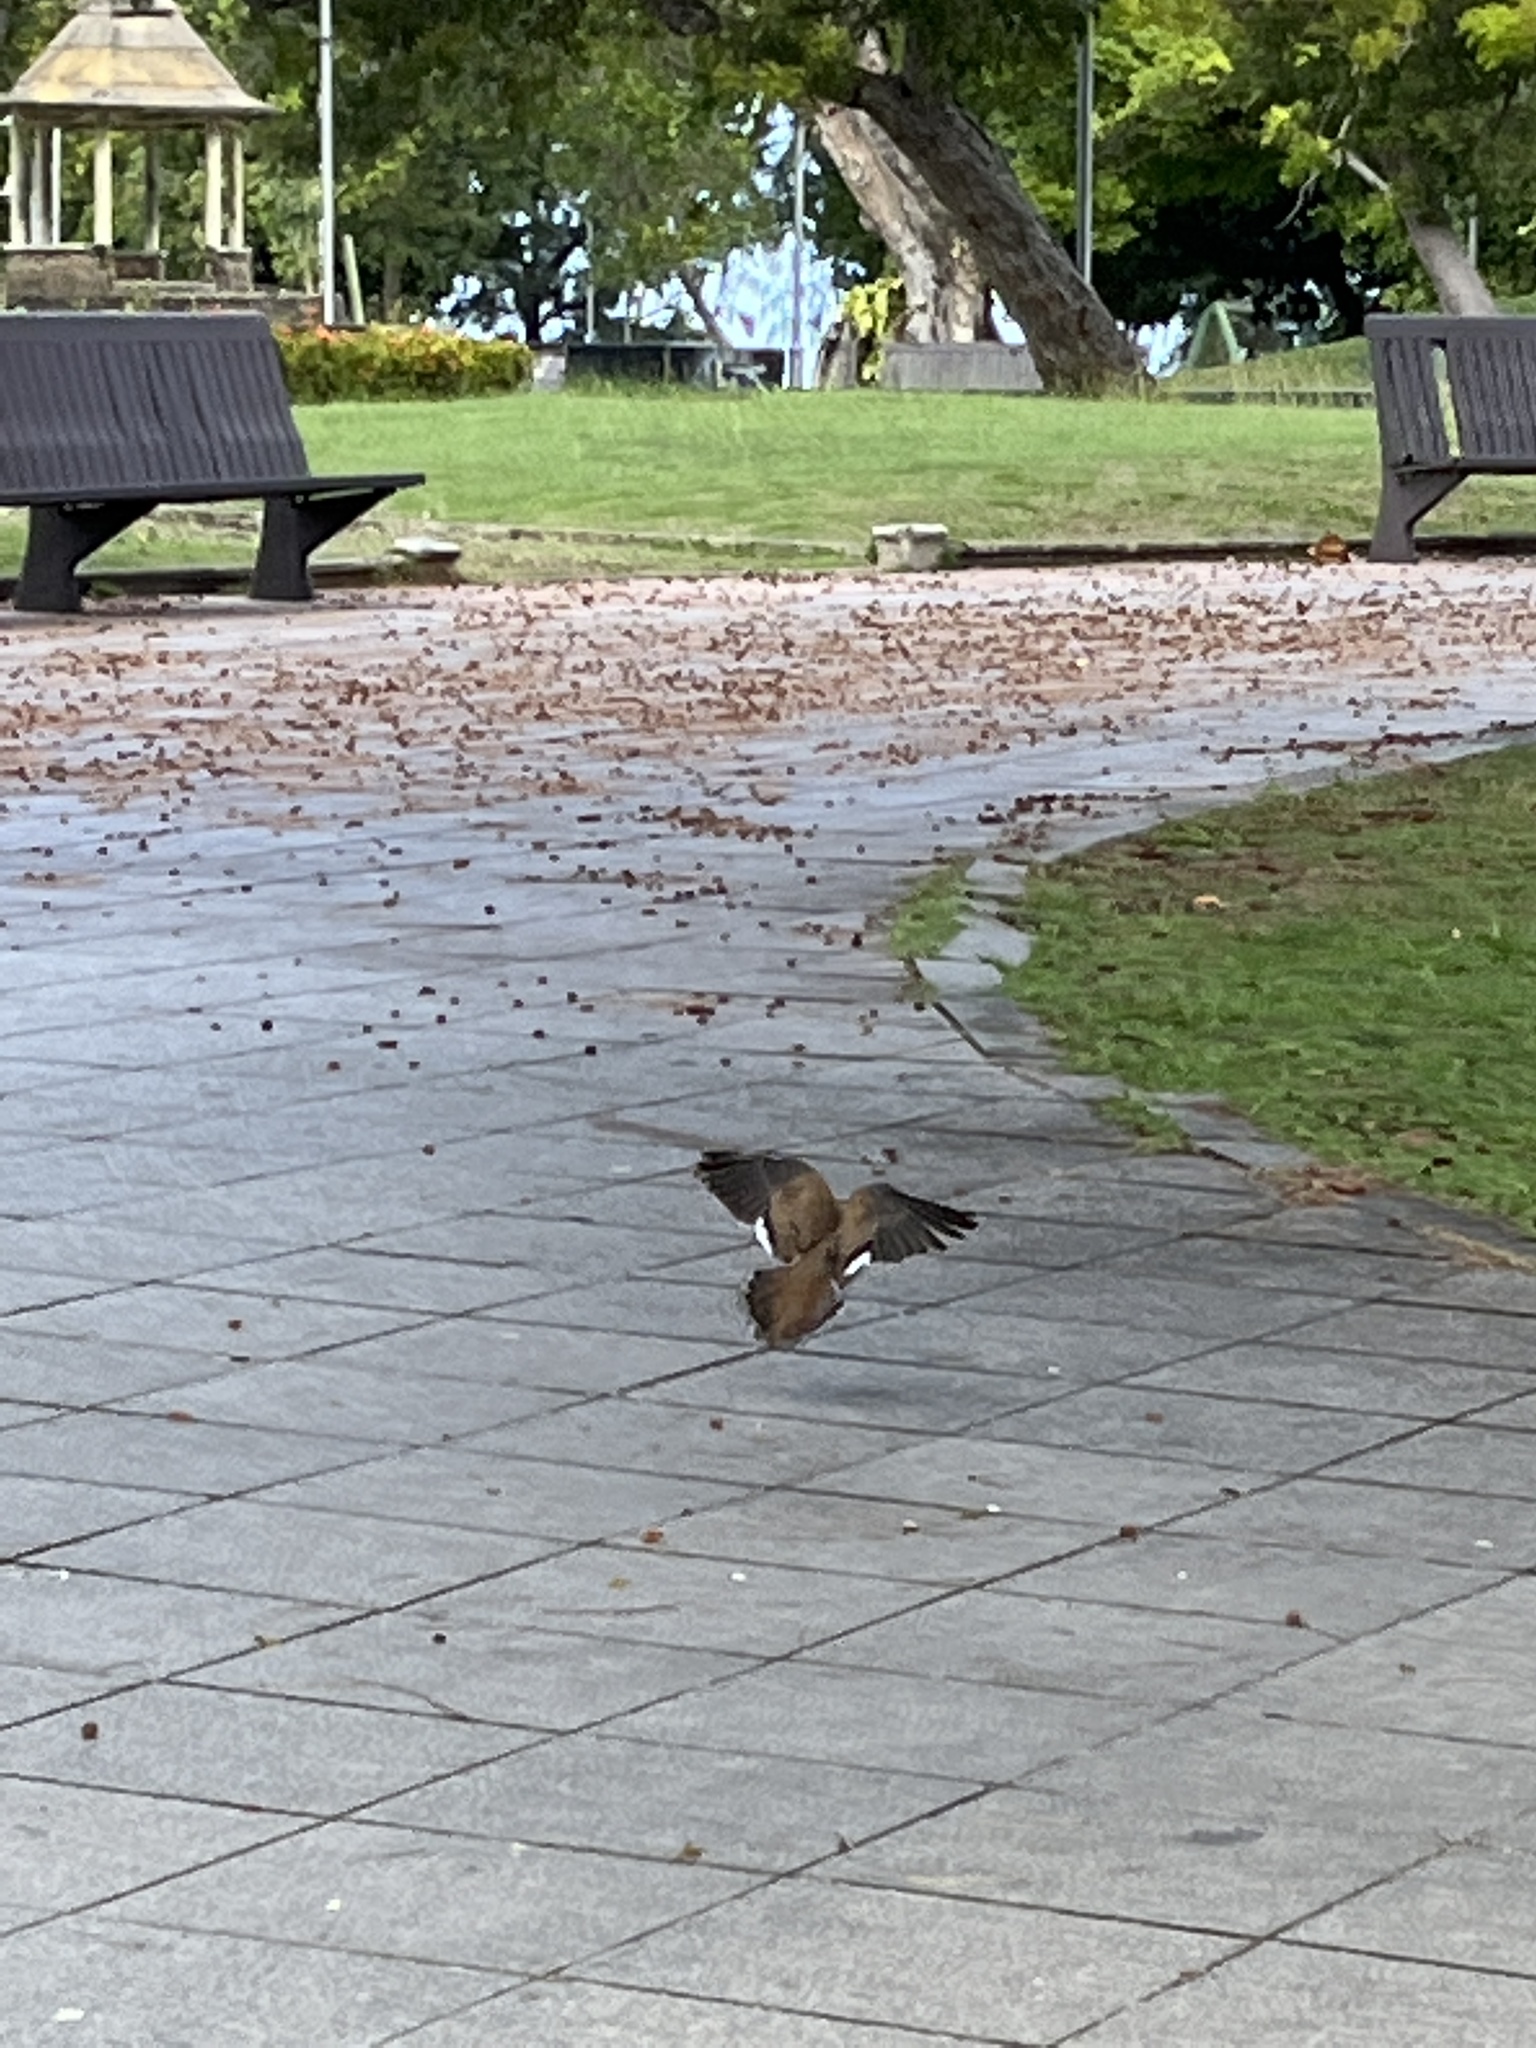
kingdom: Animalia
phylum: Chordata
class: Aves
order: Columbiformes
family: Columbidae
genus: Zenaida
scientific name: Zenaida aurita
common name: Zenaida dove
